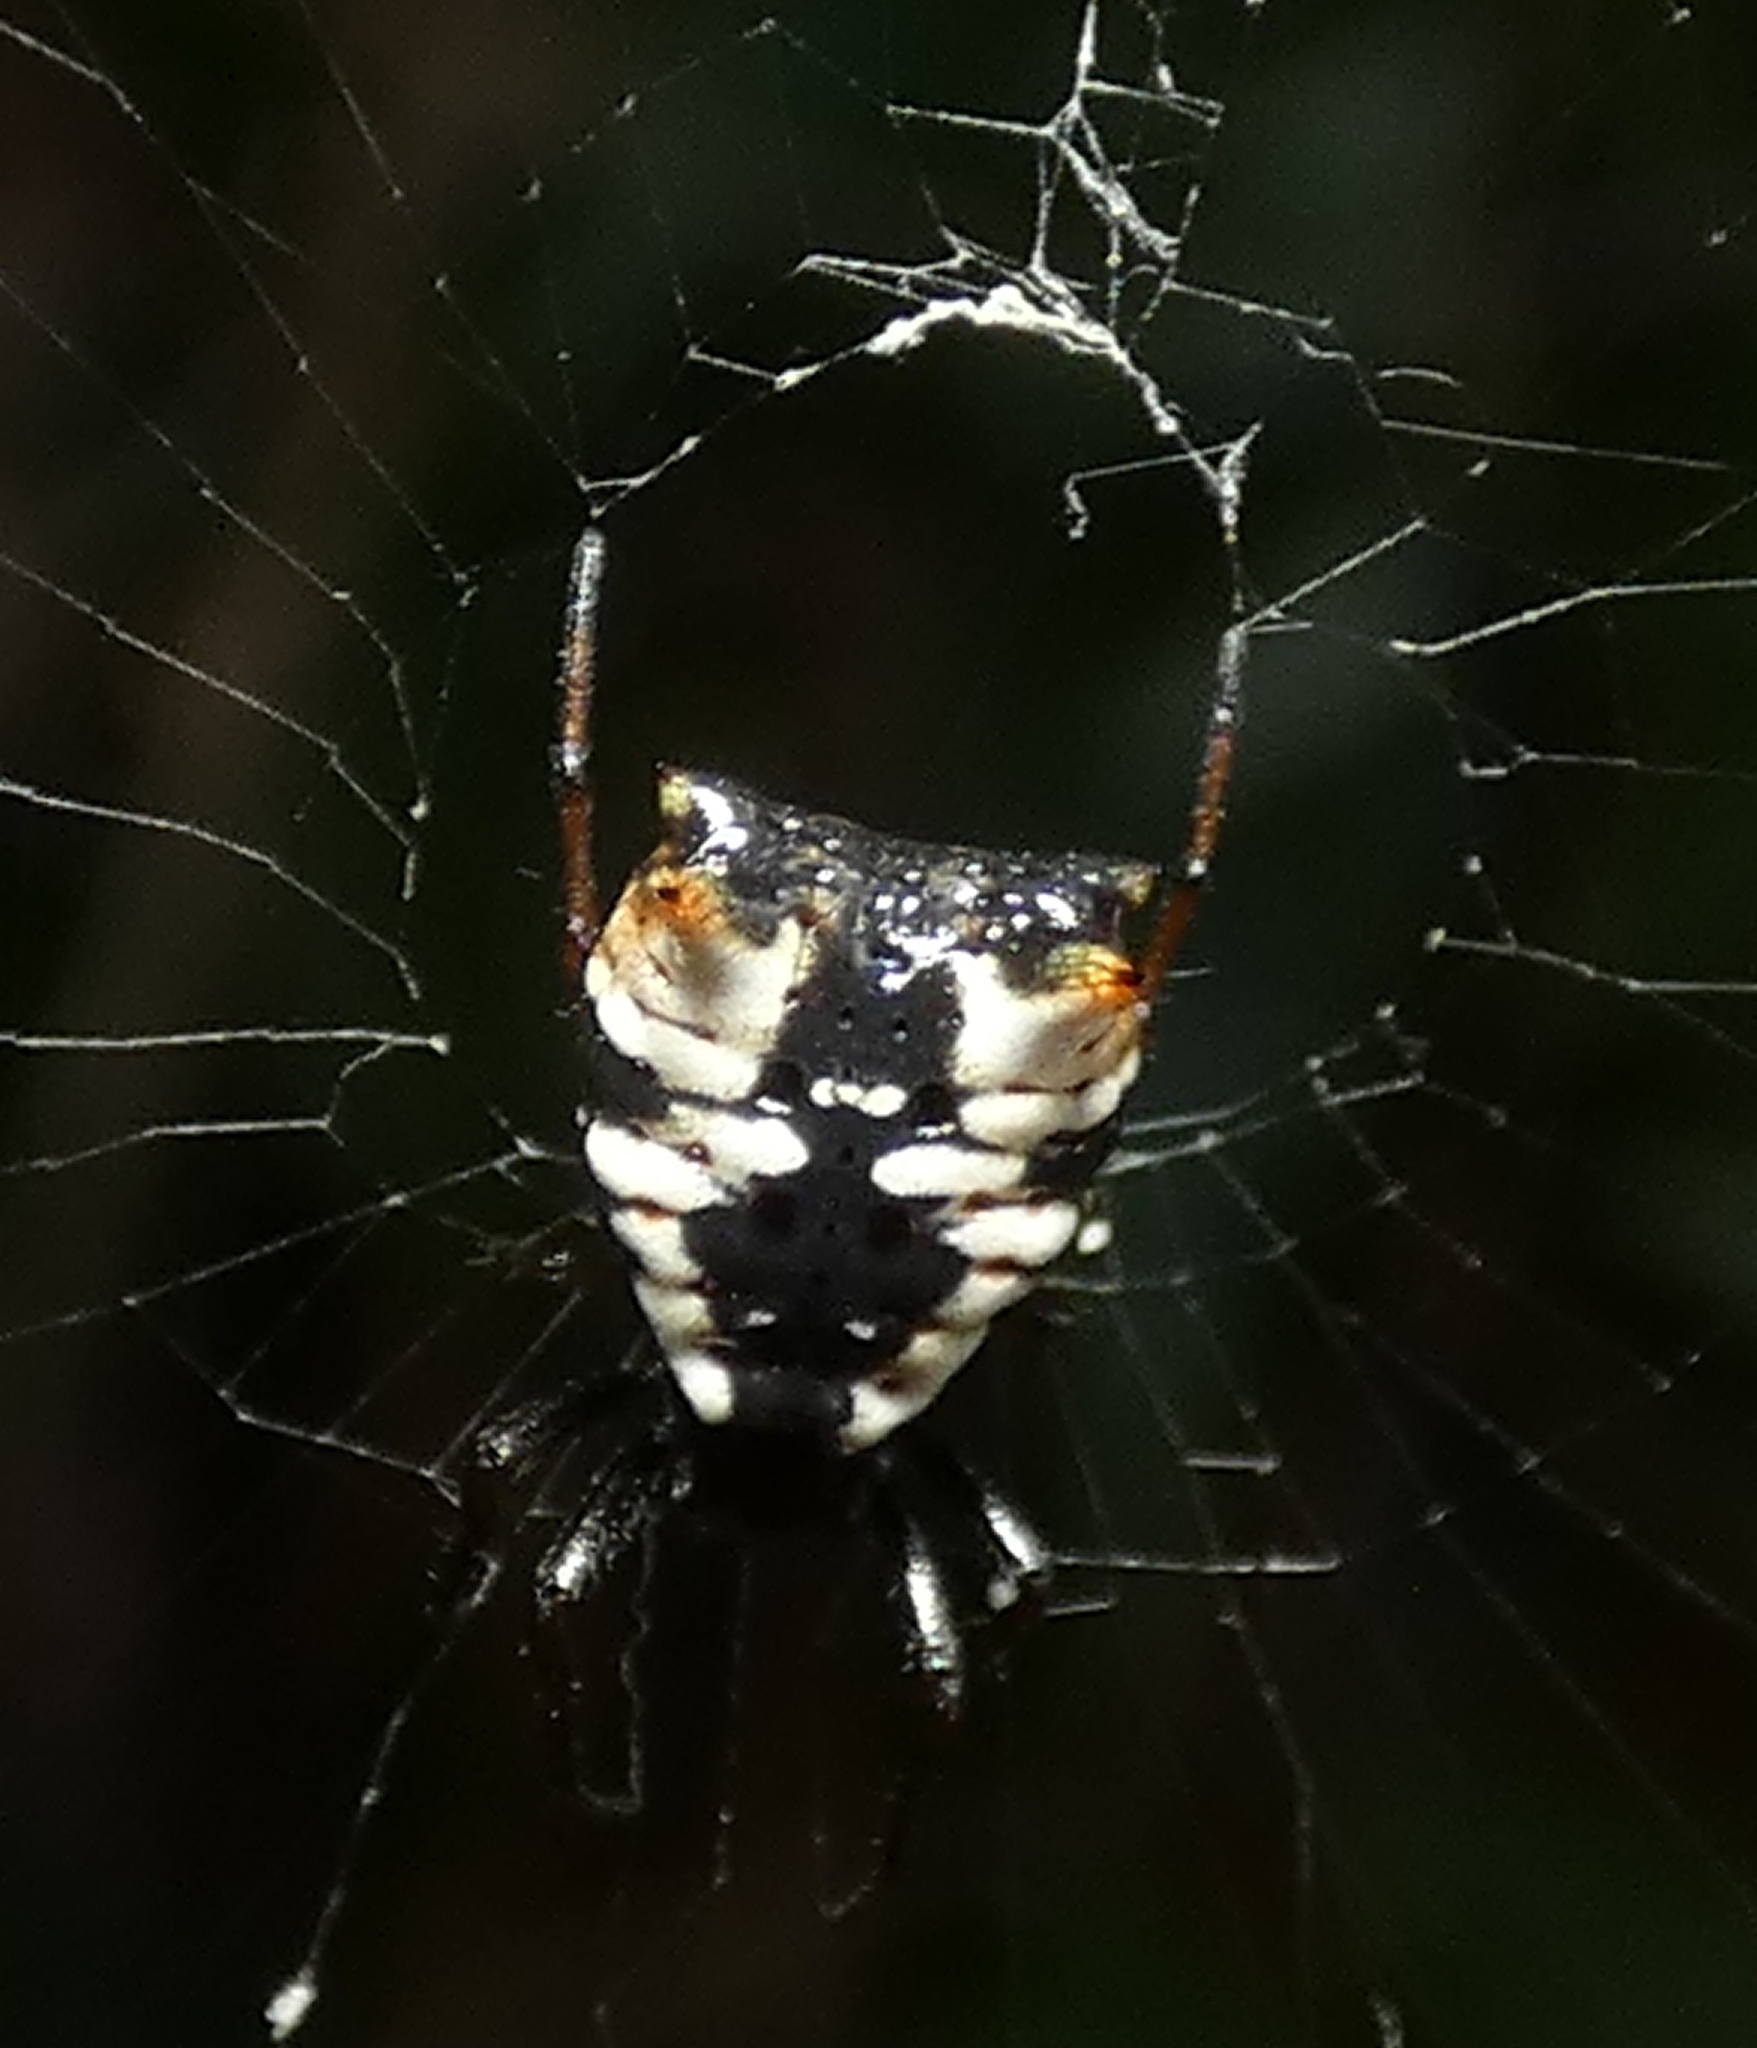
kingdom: Animalia
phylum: Arthropoda
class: Arachnida
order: Araneae
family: Araneidae
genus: Micrathena
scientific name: Micrathena patruelis
